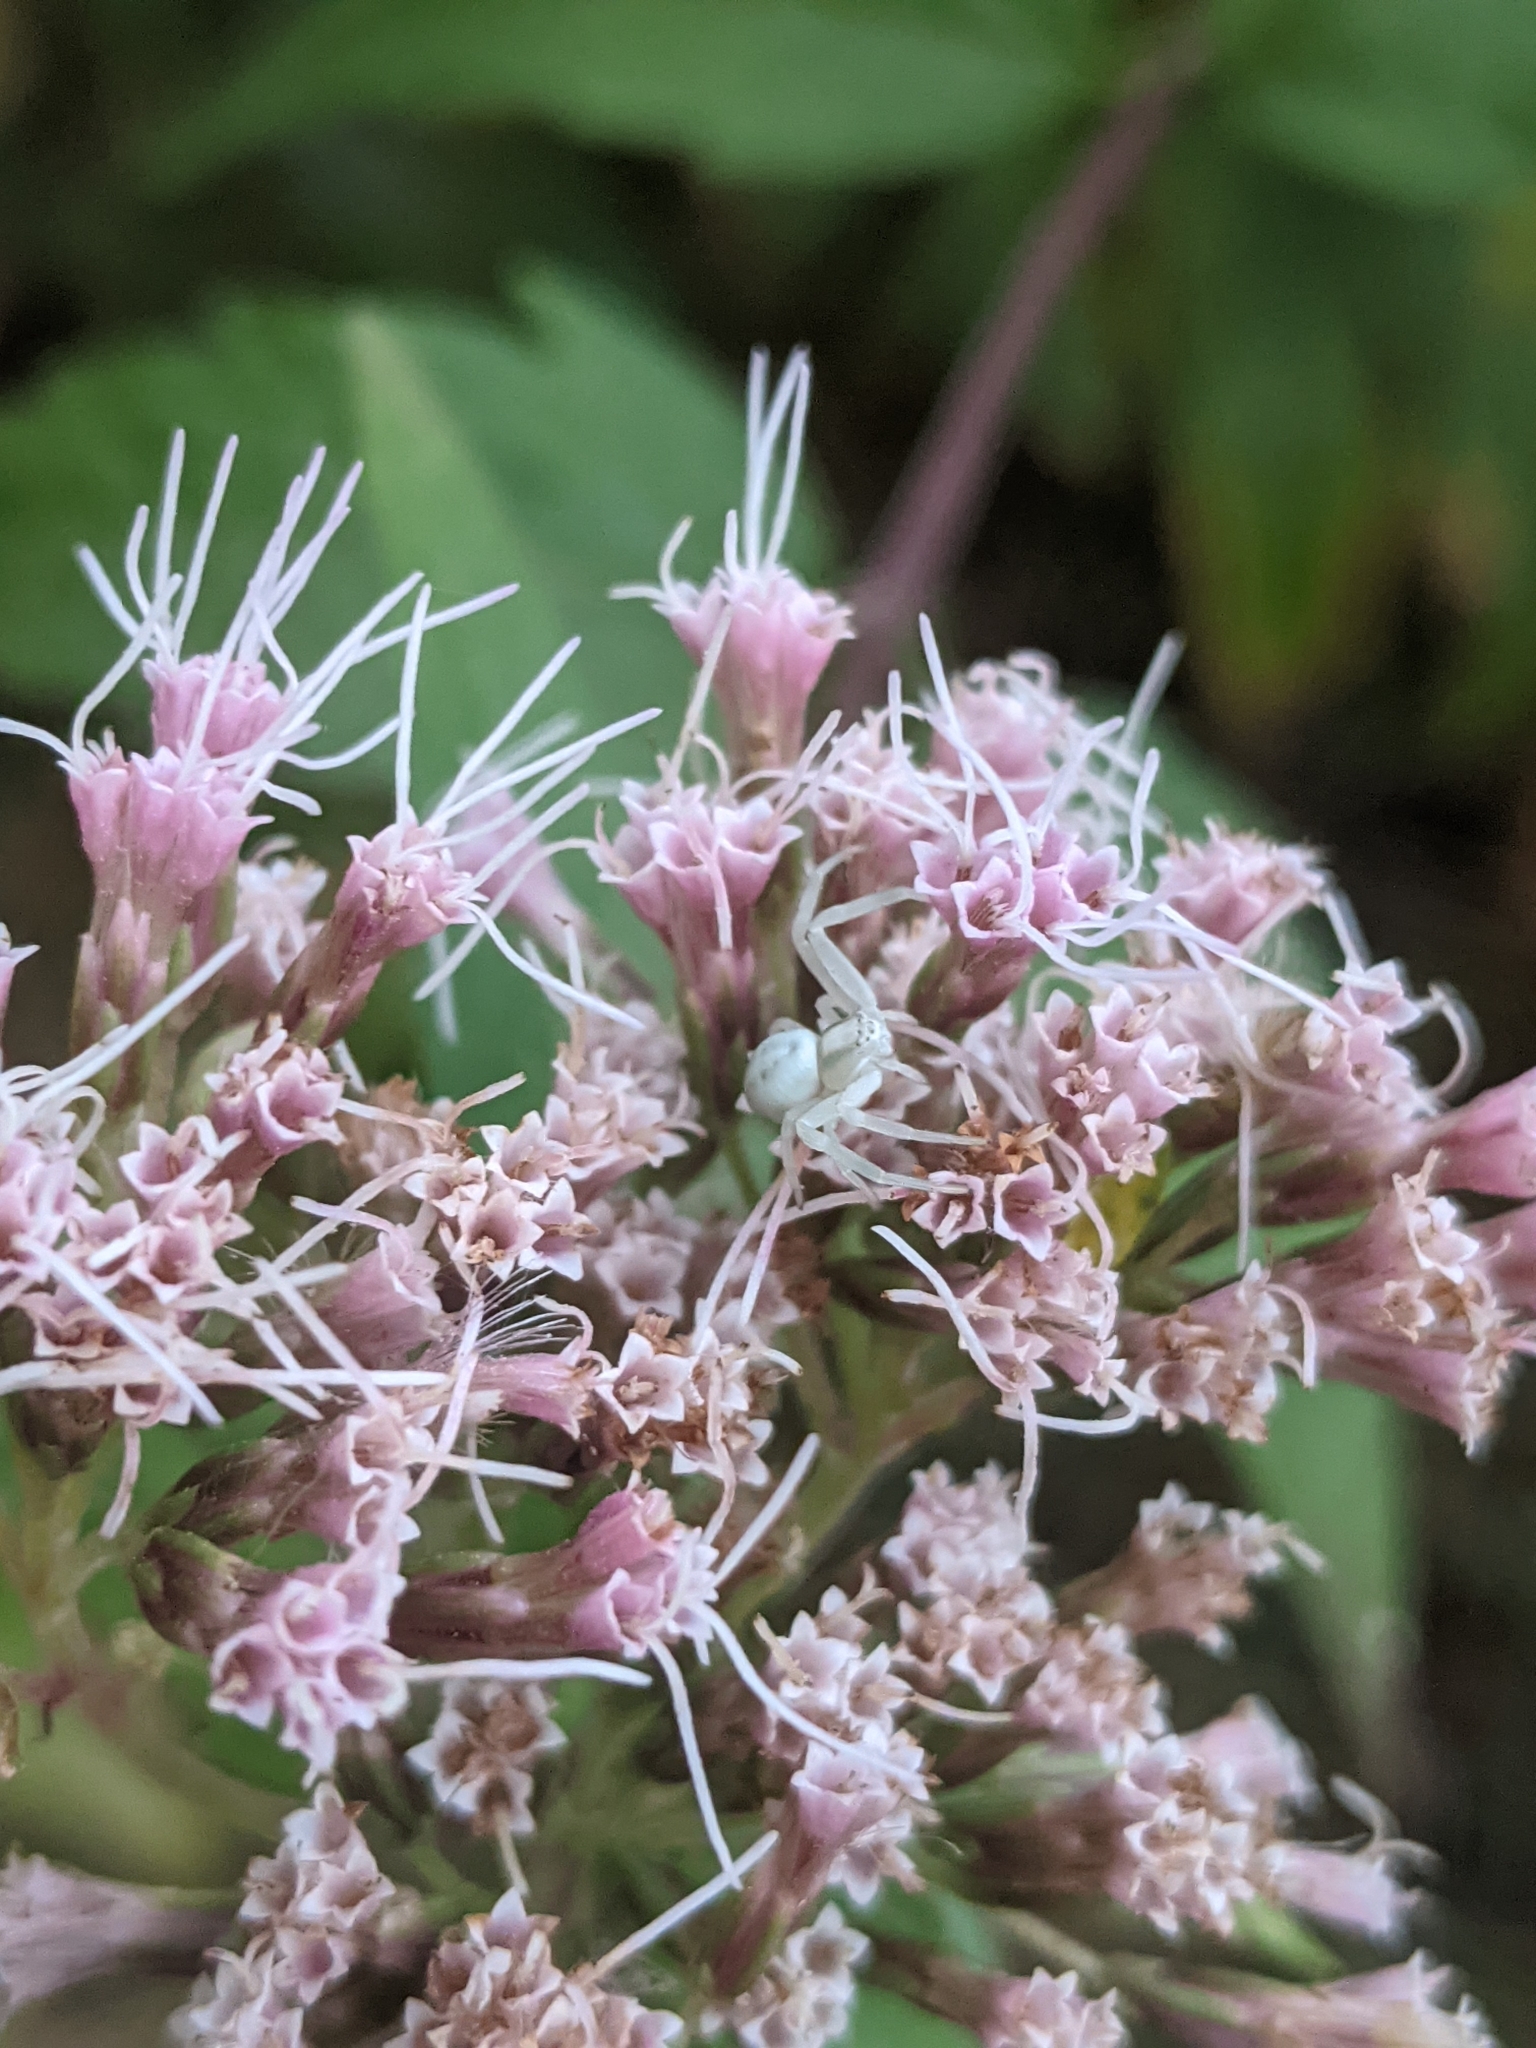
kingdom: Animalia
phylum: Arthropoda
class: Arachnida
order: Araneae
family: Thomisidae
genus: Misumena
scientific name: Misumena vatia
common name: Goldenrod crab spider
